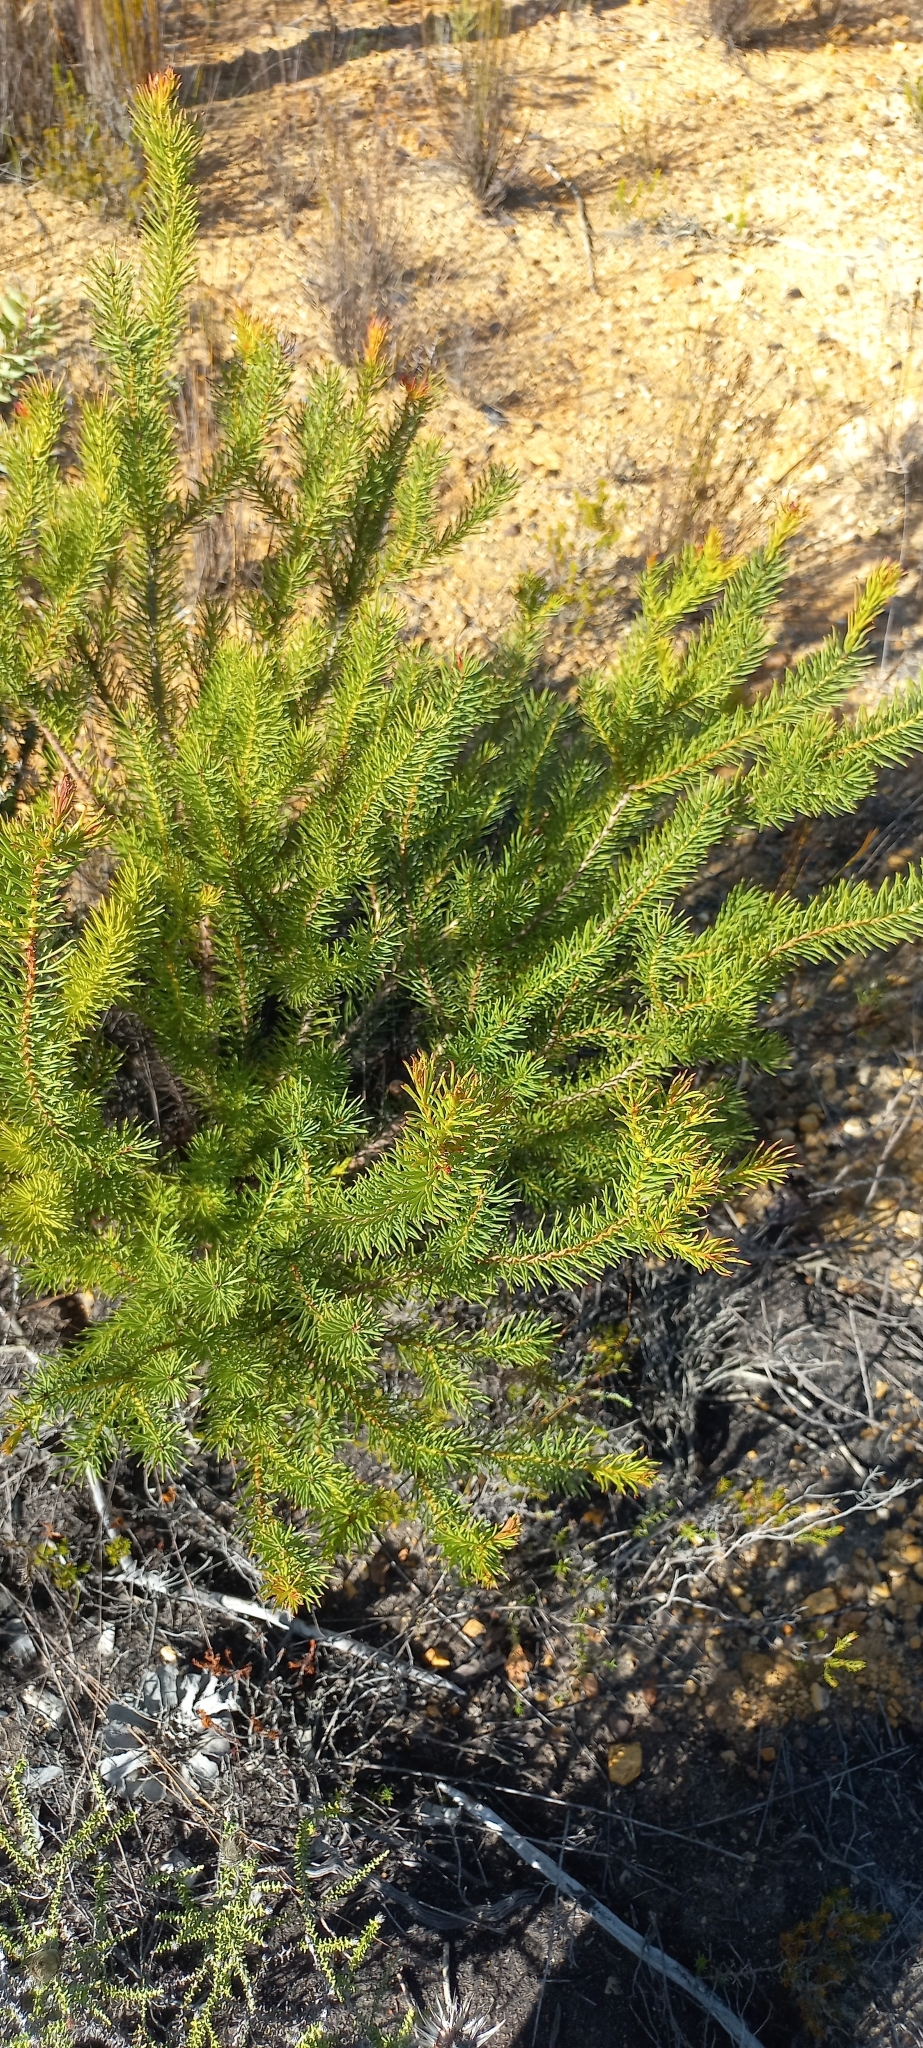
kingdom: Plantae
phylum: Tracheophyta
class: Magnoliopsida
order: Proteales
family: Proteaceae
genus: Protea
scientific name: Protea subulifolia
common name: Awl-leaf sugarbush
